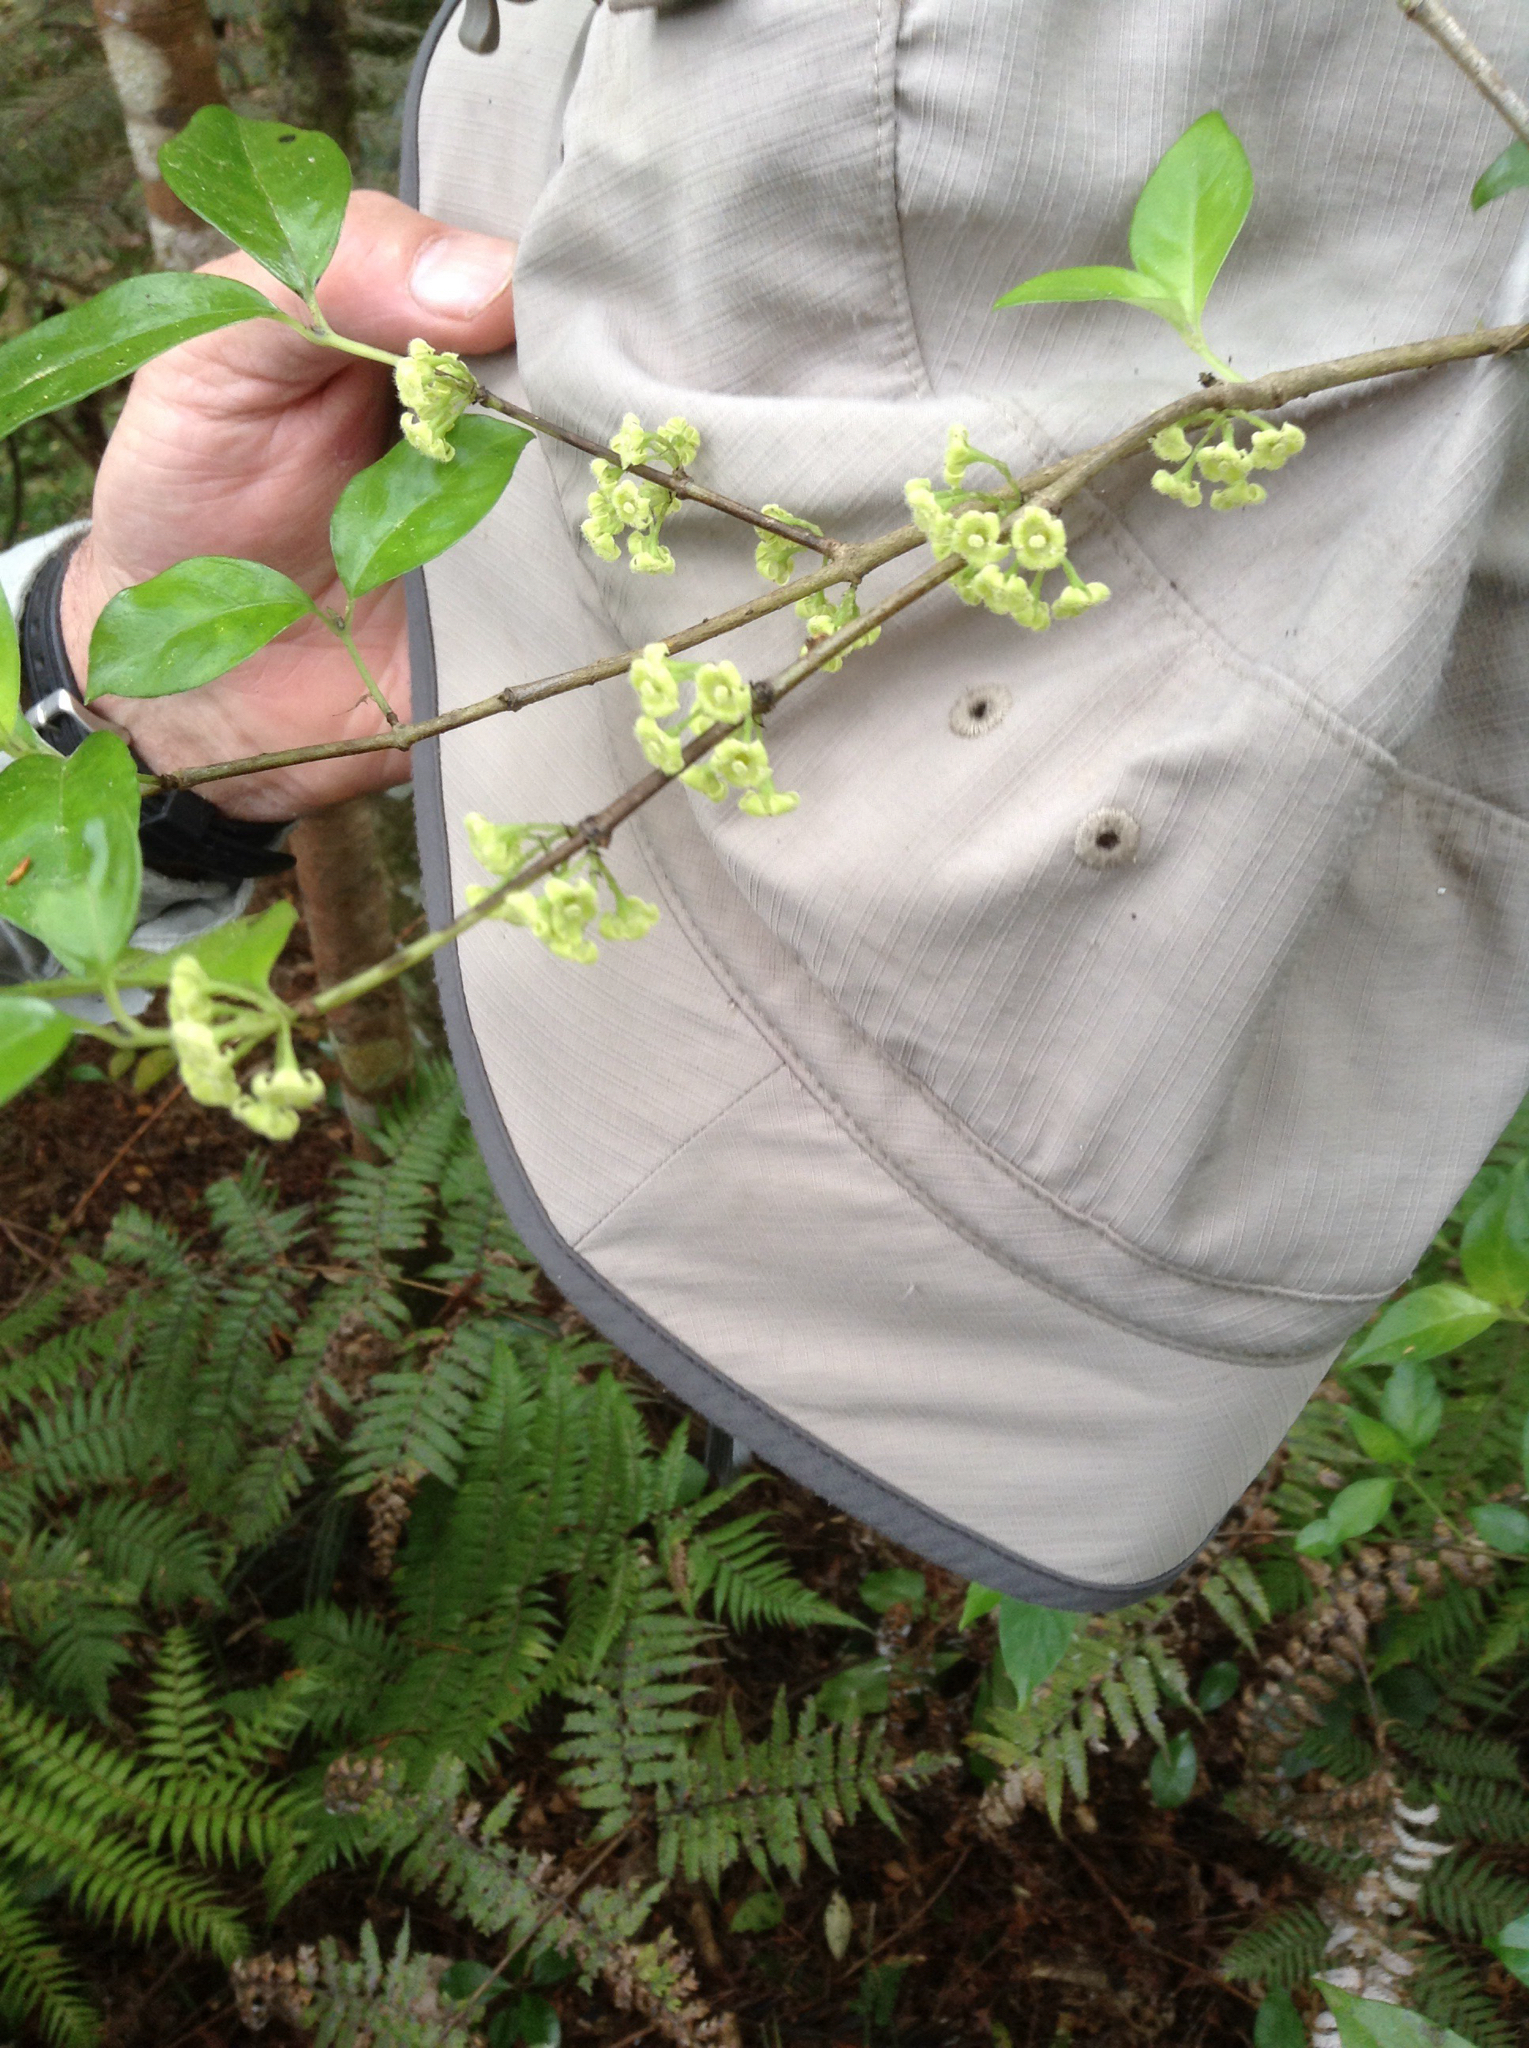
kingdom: Plantae
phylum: Tracheophyta
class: Magnoliopsida
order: Gentianales
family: Loganiaceae
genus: Geniostoma
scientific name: Geniostoma ligustrifolium
